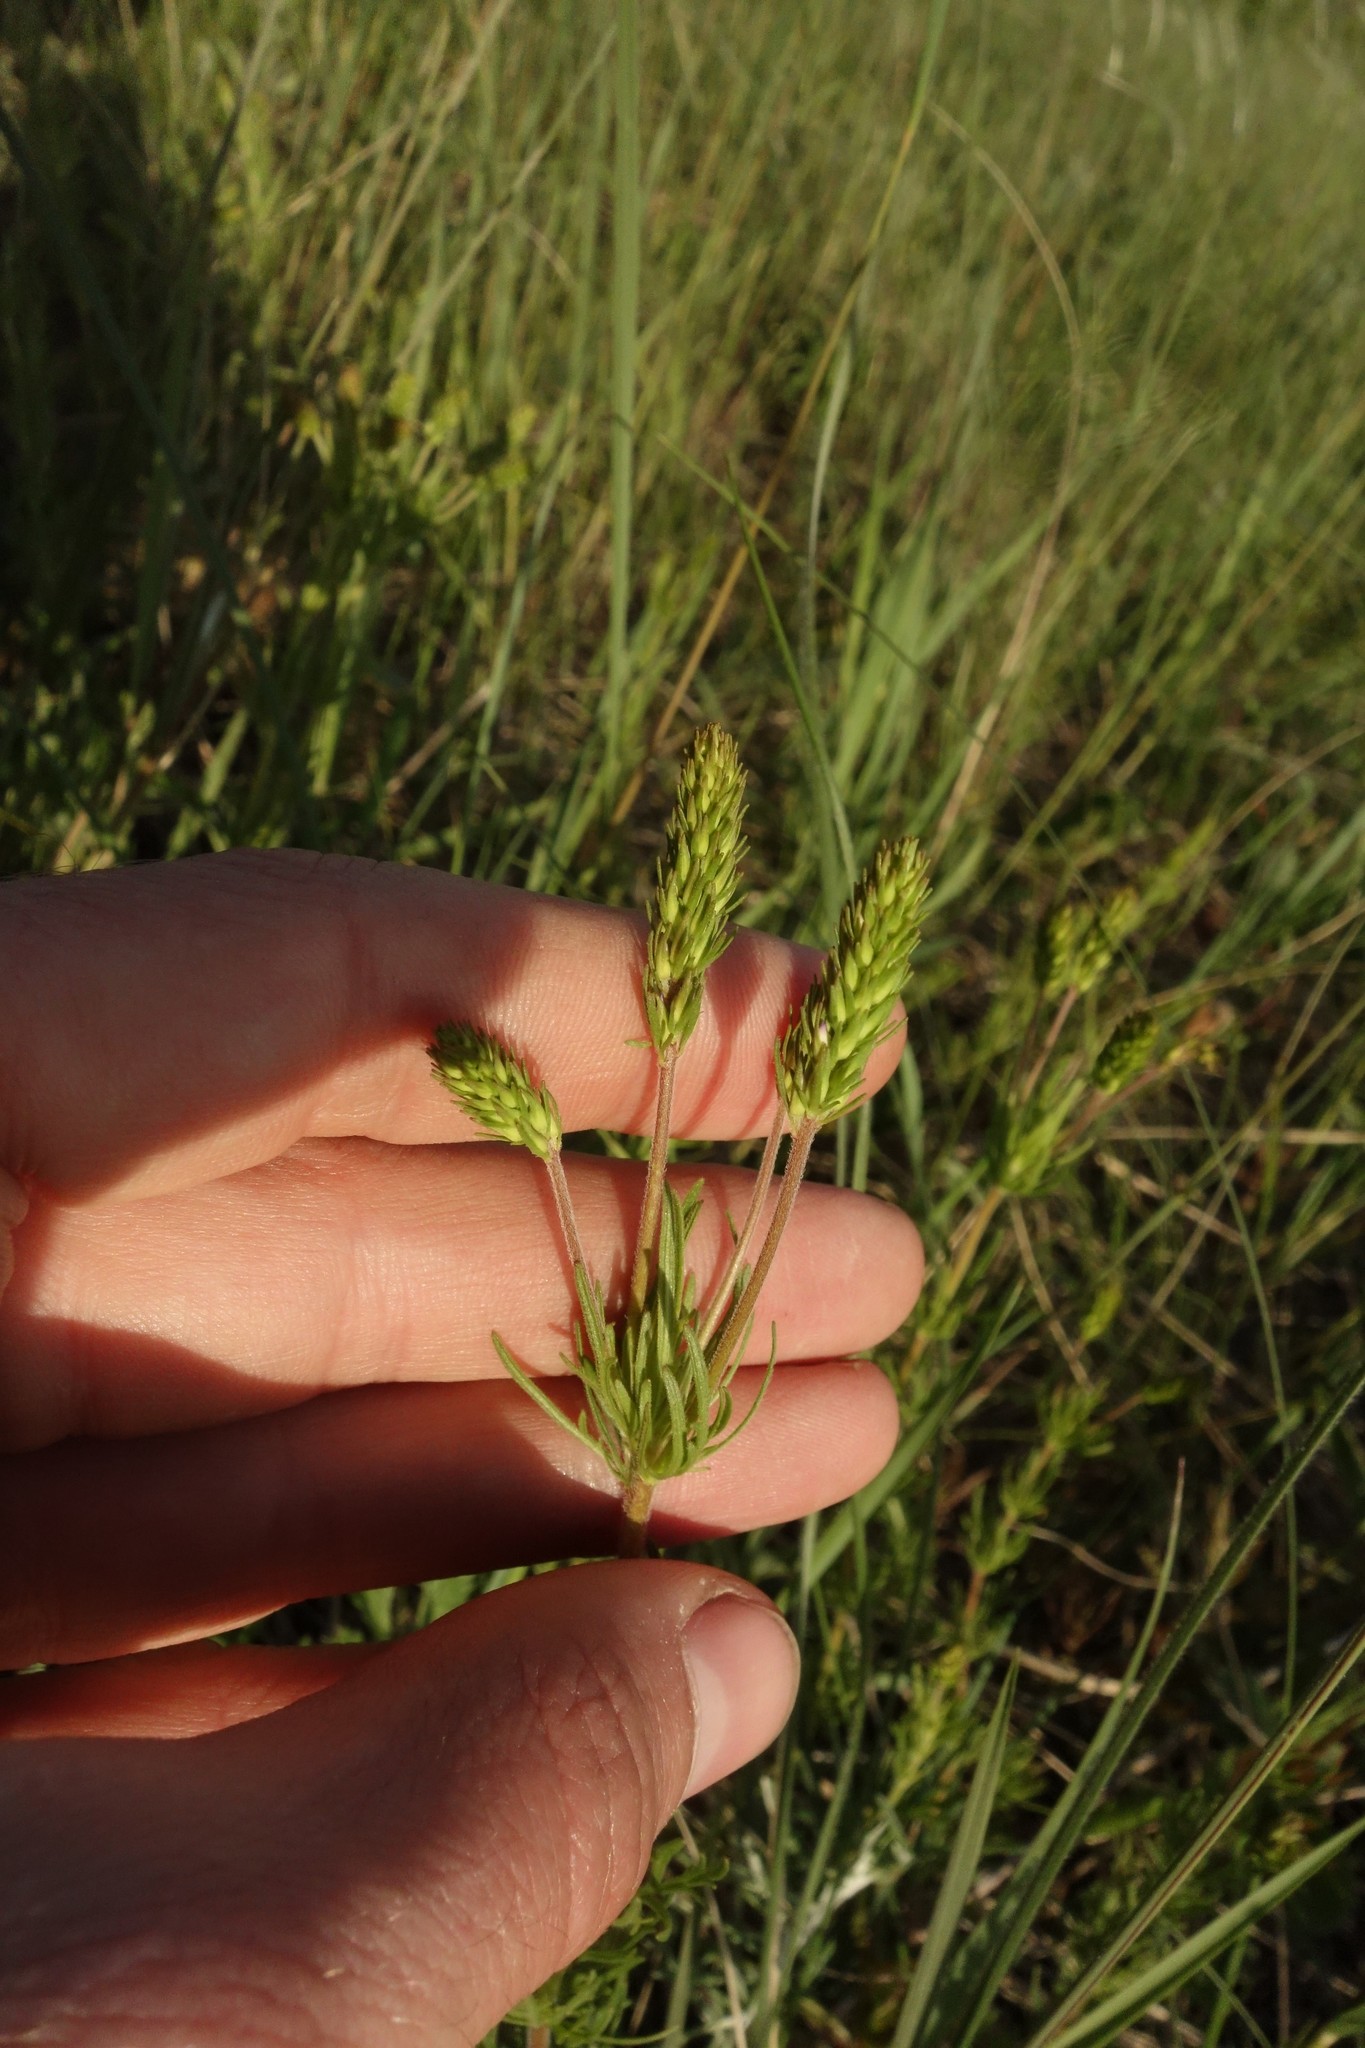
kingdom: Plantae
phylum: Tracheophyta
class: Magnoliopsida
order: Lamiales
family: Plantaginaceae
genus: Veronica
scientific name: Veronica austriaca
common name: Large speedwell
